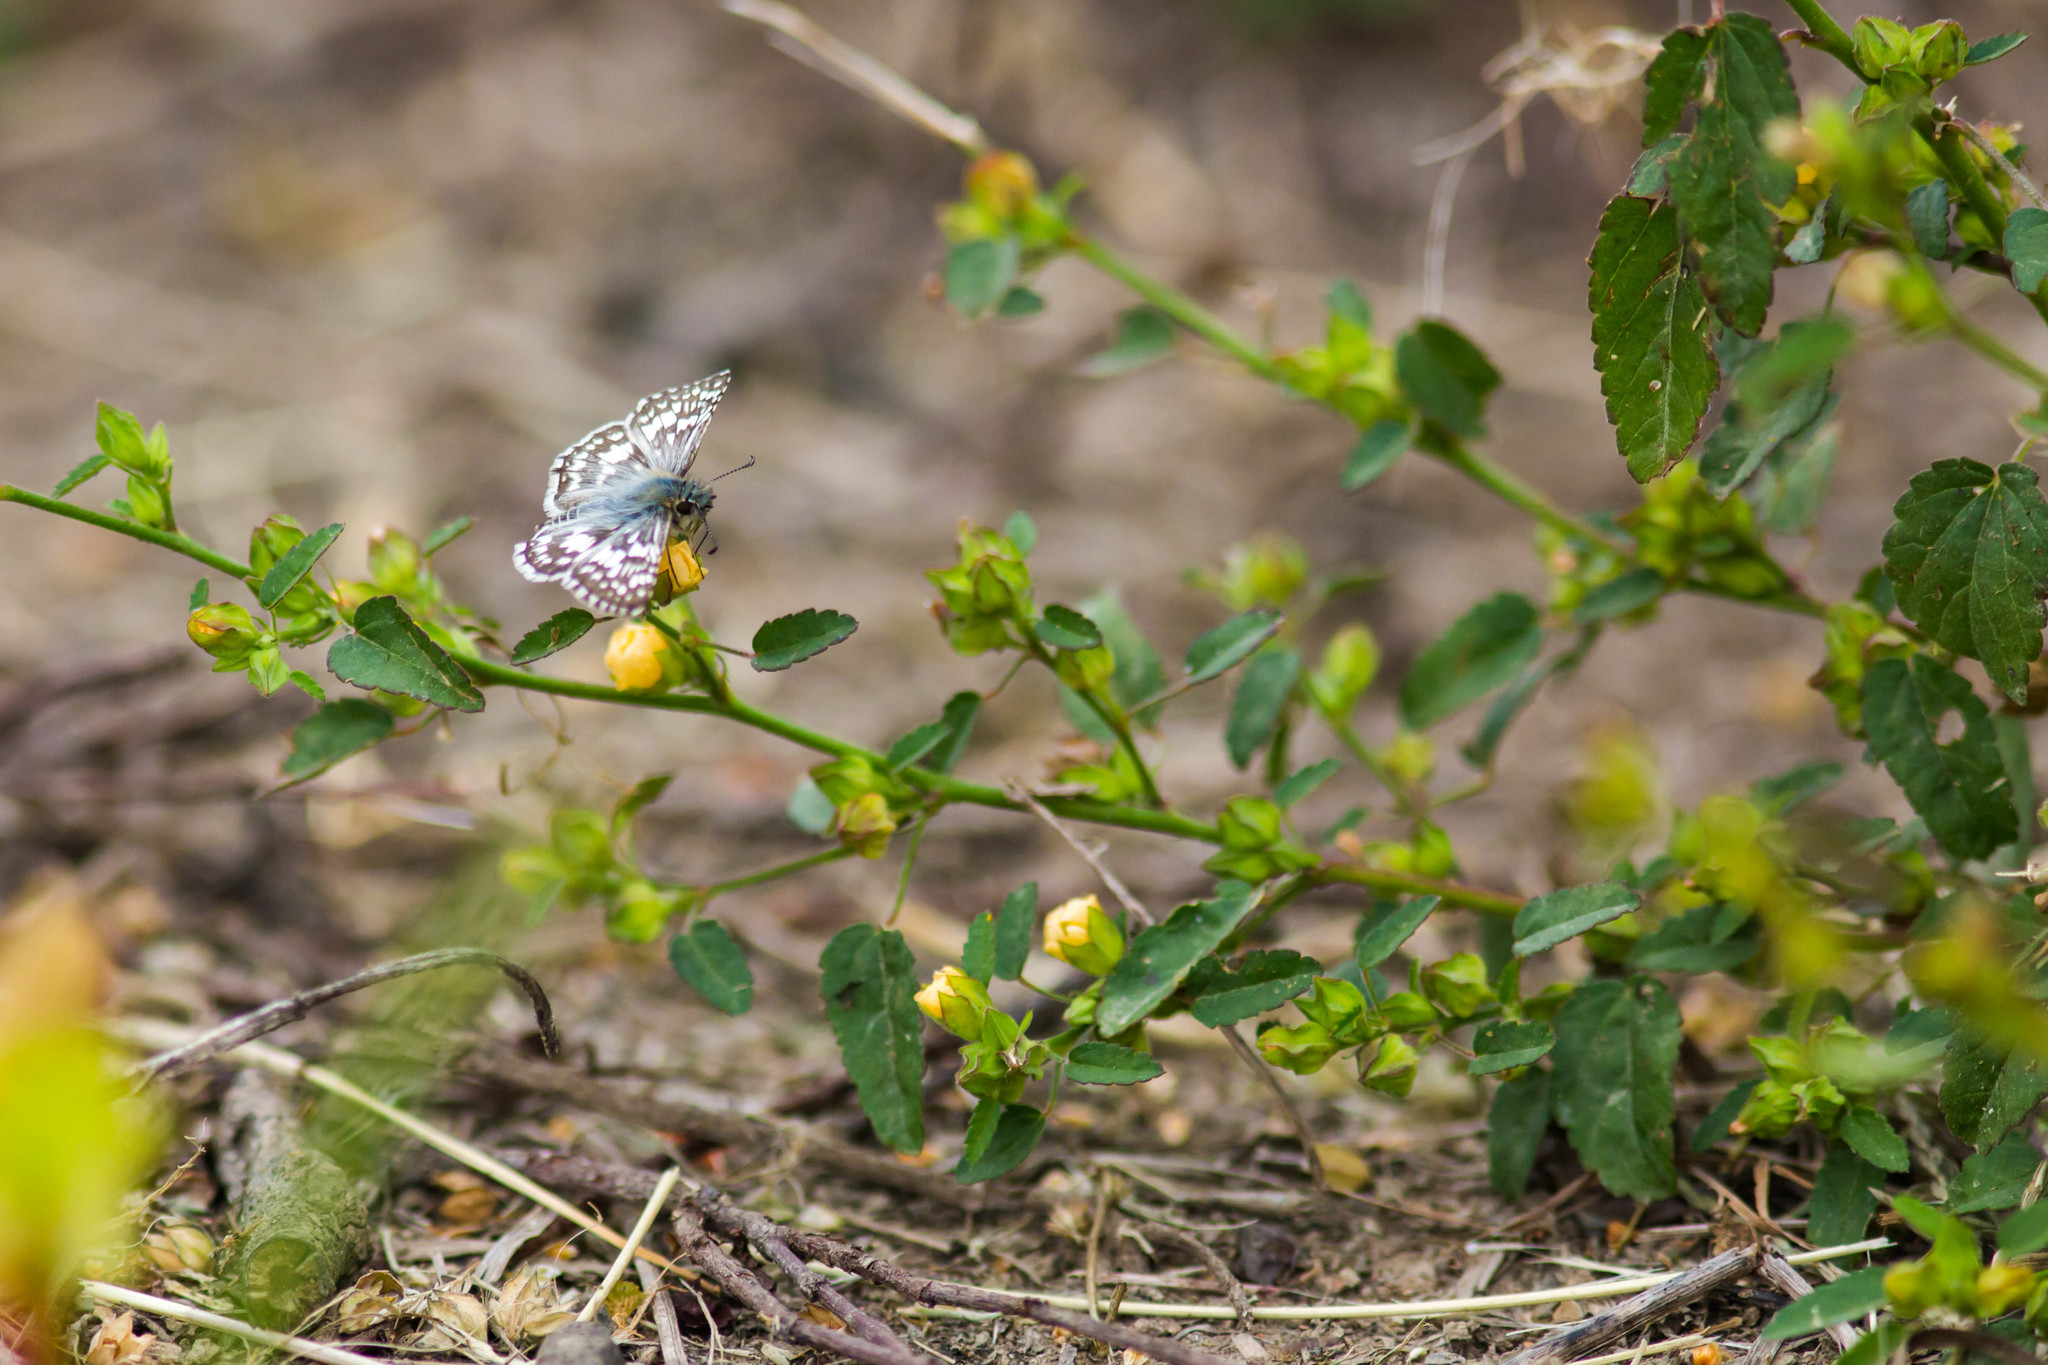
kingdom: Animalia
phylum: Arthropoda
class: Insecta
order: Lepidoptera
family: Hesperiidae
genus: Burnsius
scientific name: Burnsius communis
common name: Common checkered-skipper
